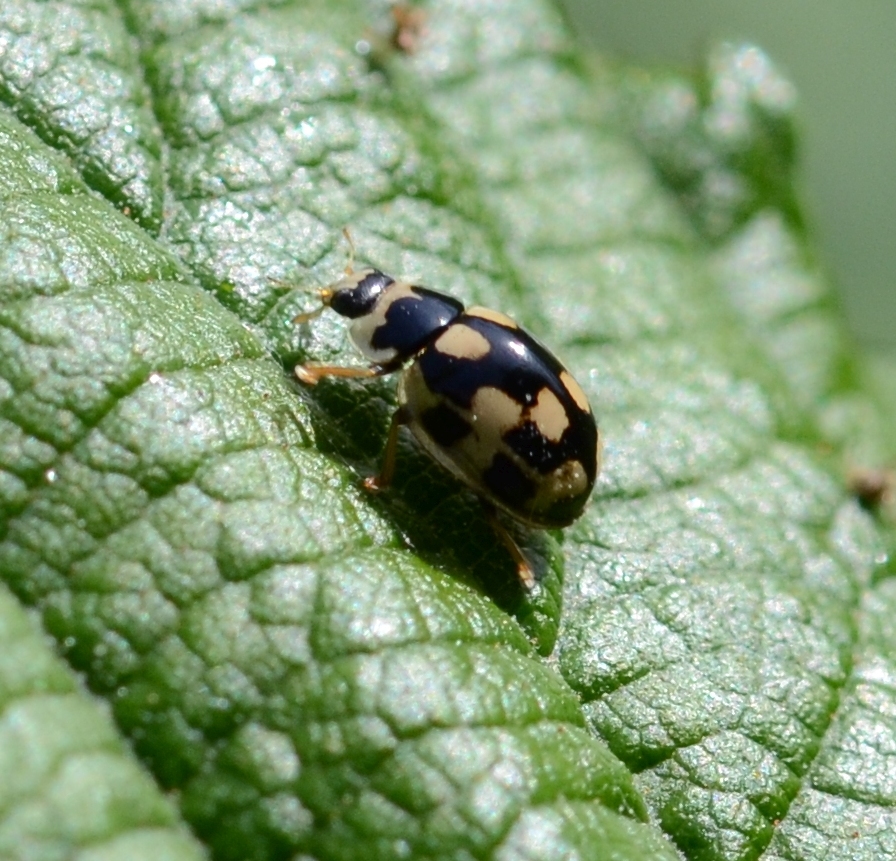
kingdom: Animalia
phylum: Arthropoda
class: Insecta
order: Coleoptera
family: Coccinellidae
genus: Propylaea
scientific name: Propylaea quatuordecimpunctata
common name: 14-spotted ladybird beetle
